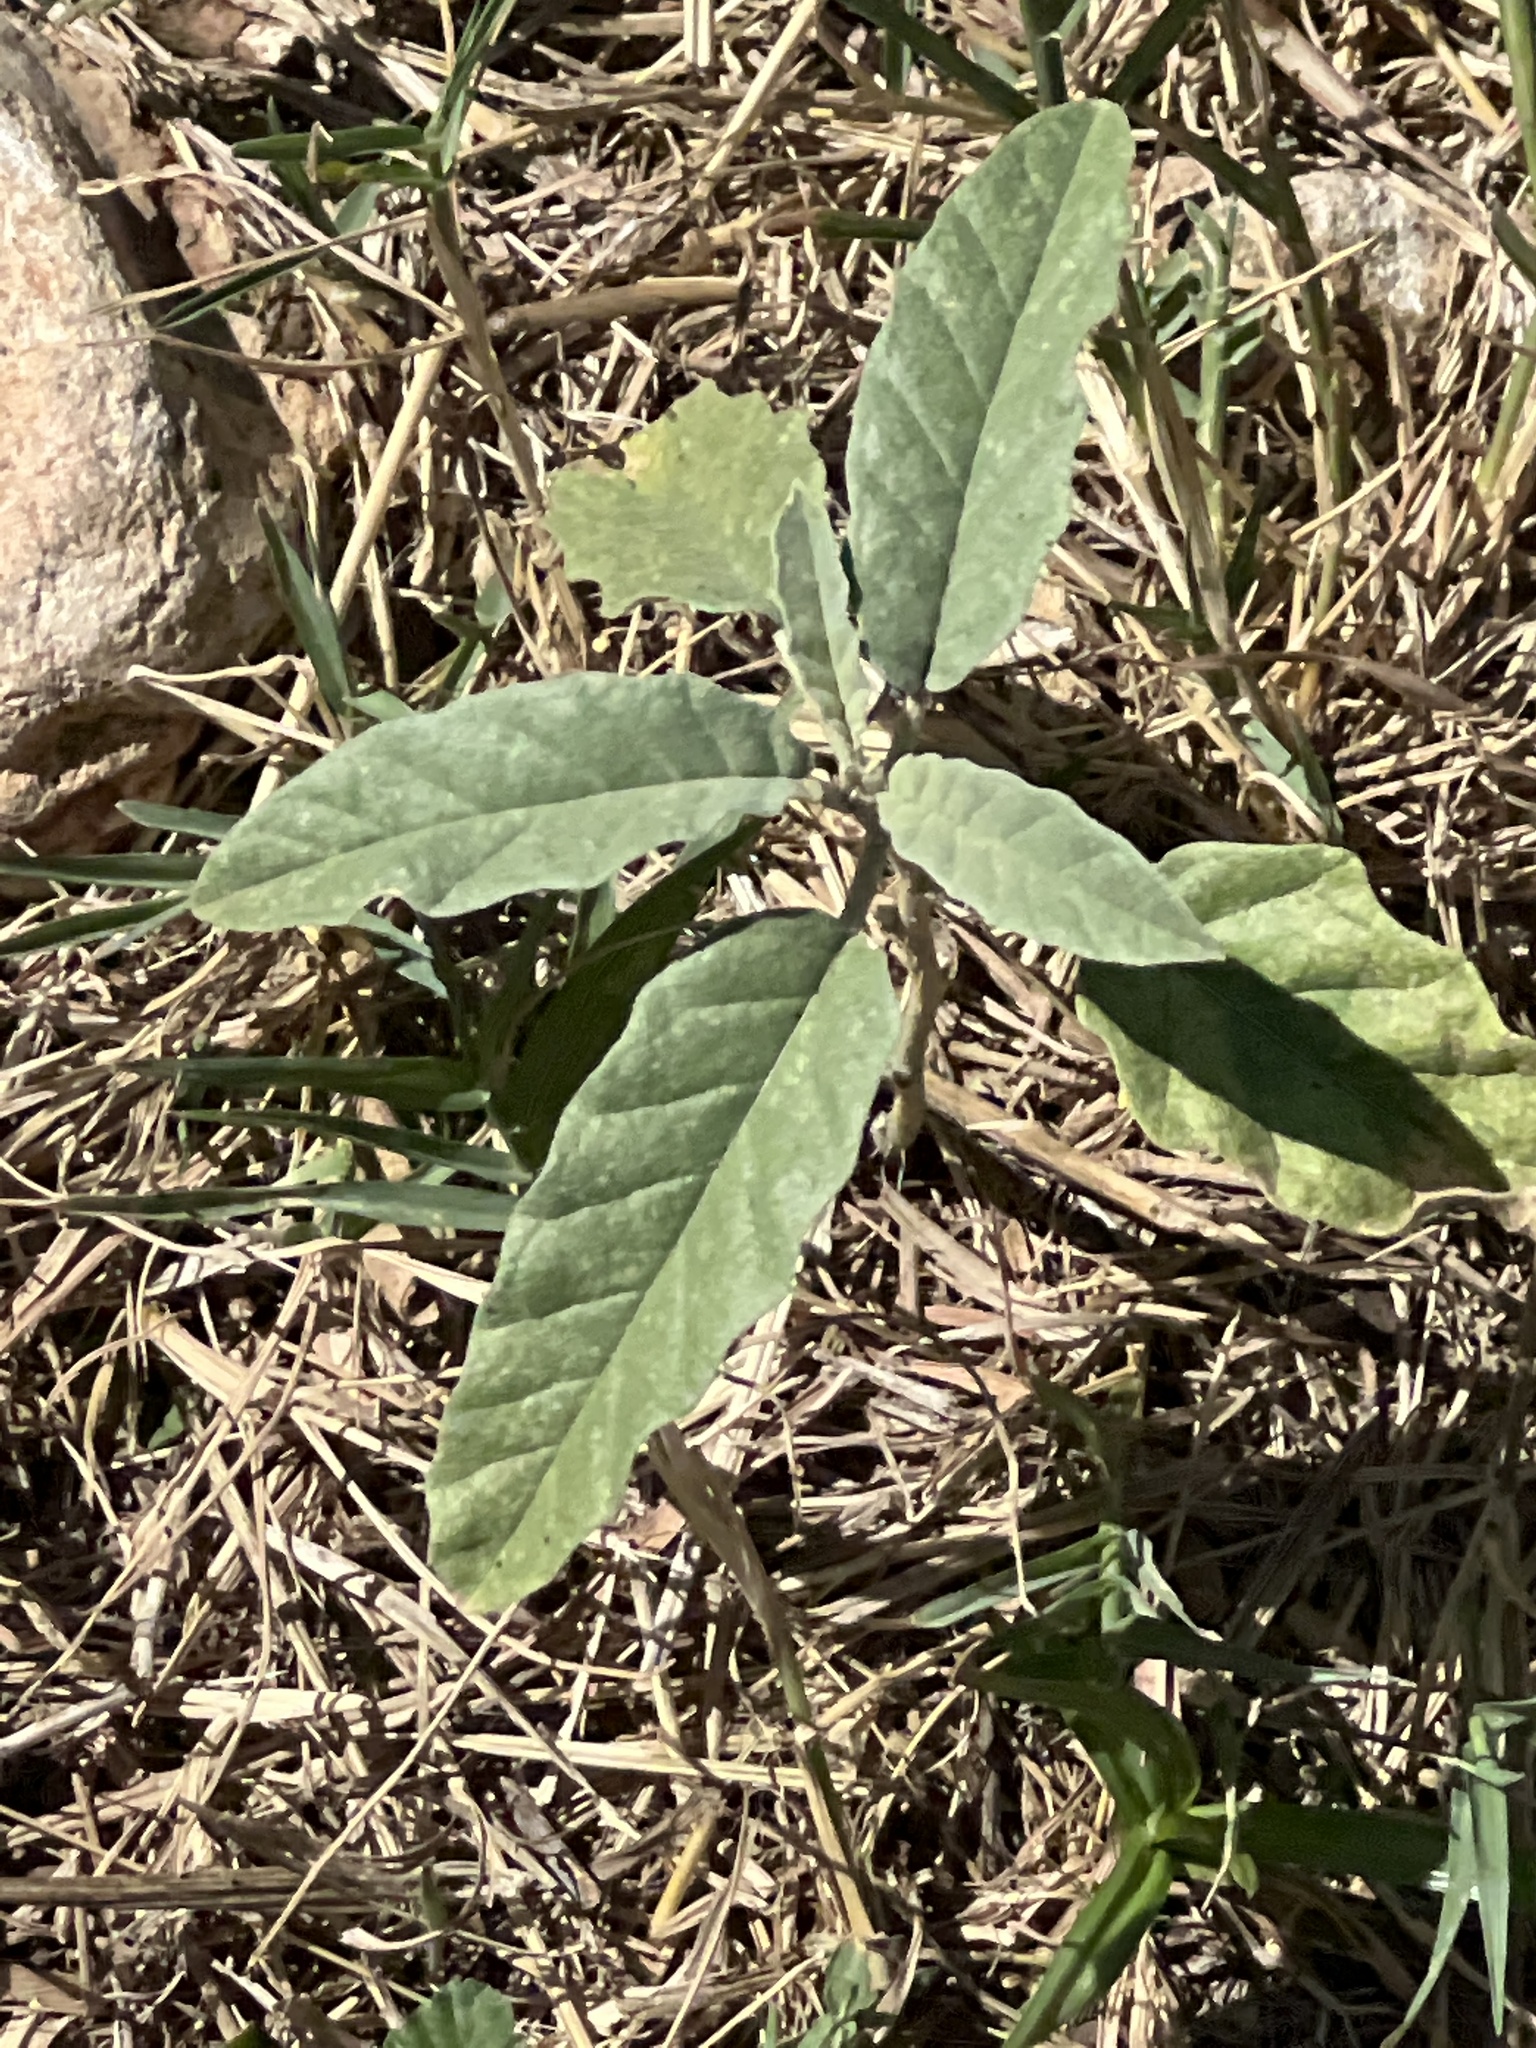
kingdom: Plantae
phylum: Tracheophyta
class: Magnoliopsida
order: Solanales
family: Solanaceae
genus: Solanum
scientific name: Solanum elaeagnifolium
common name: Silverleaf nightshade
